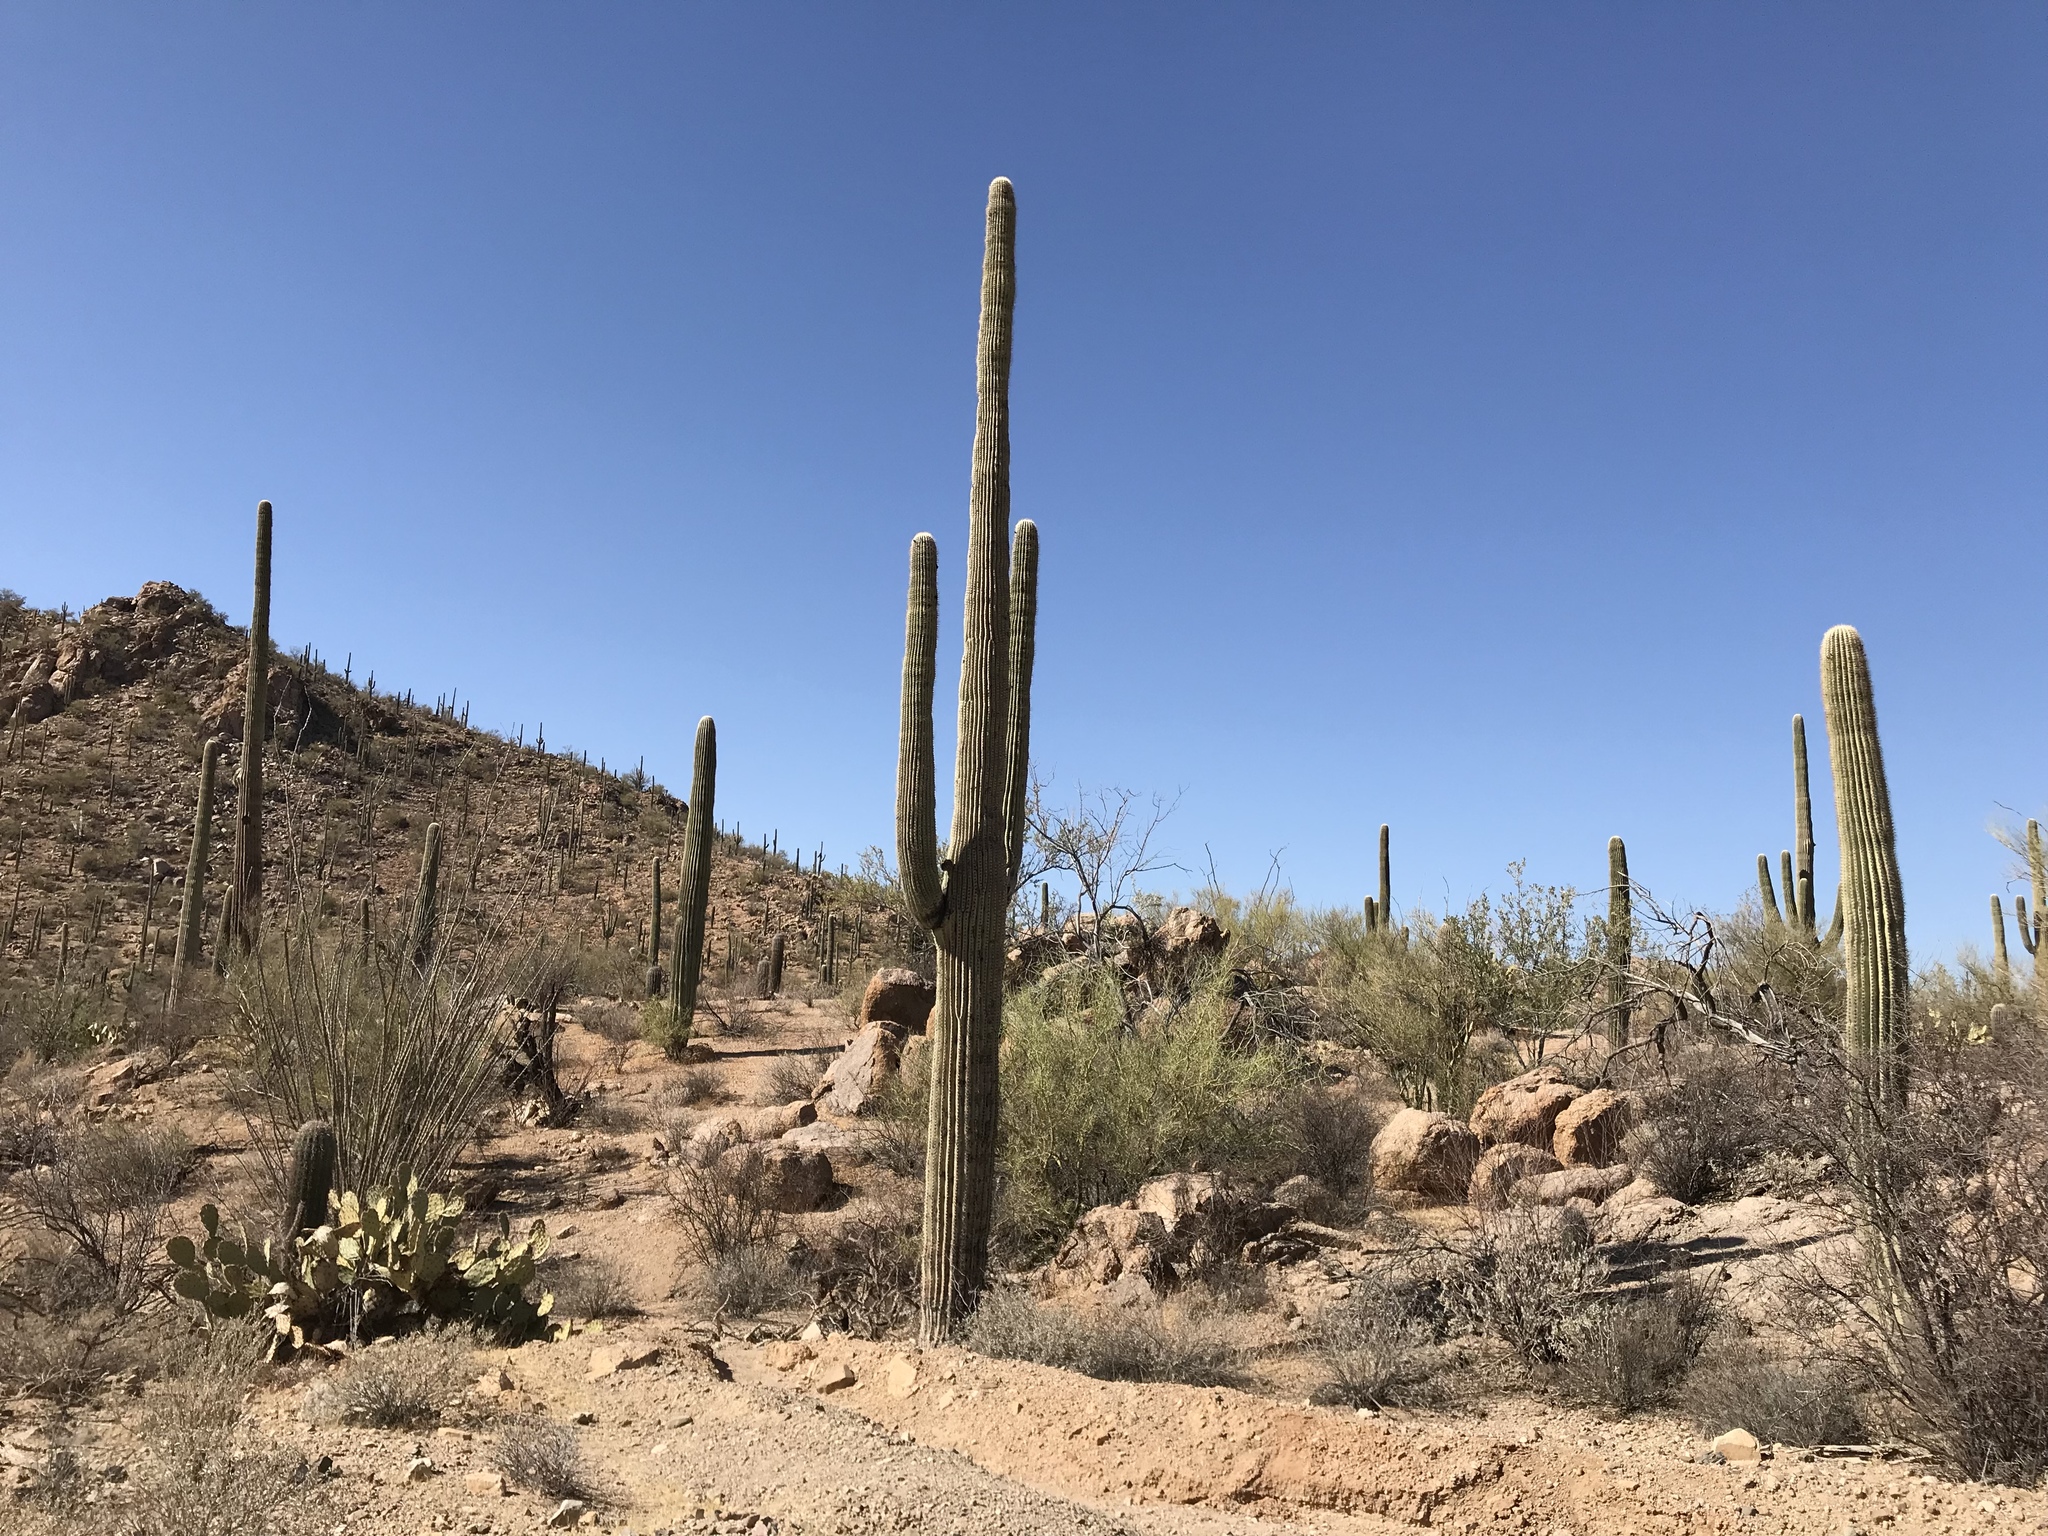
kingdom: Plantae
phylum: Tracheophyta
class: Magnoliopsida
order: Caryophyllales
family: Cactaceae
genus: Carnegiea
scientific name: Carnegiea gigantea
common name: Saguaro
